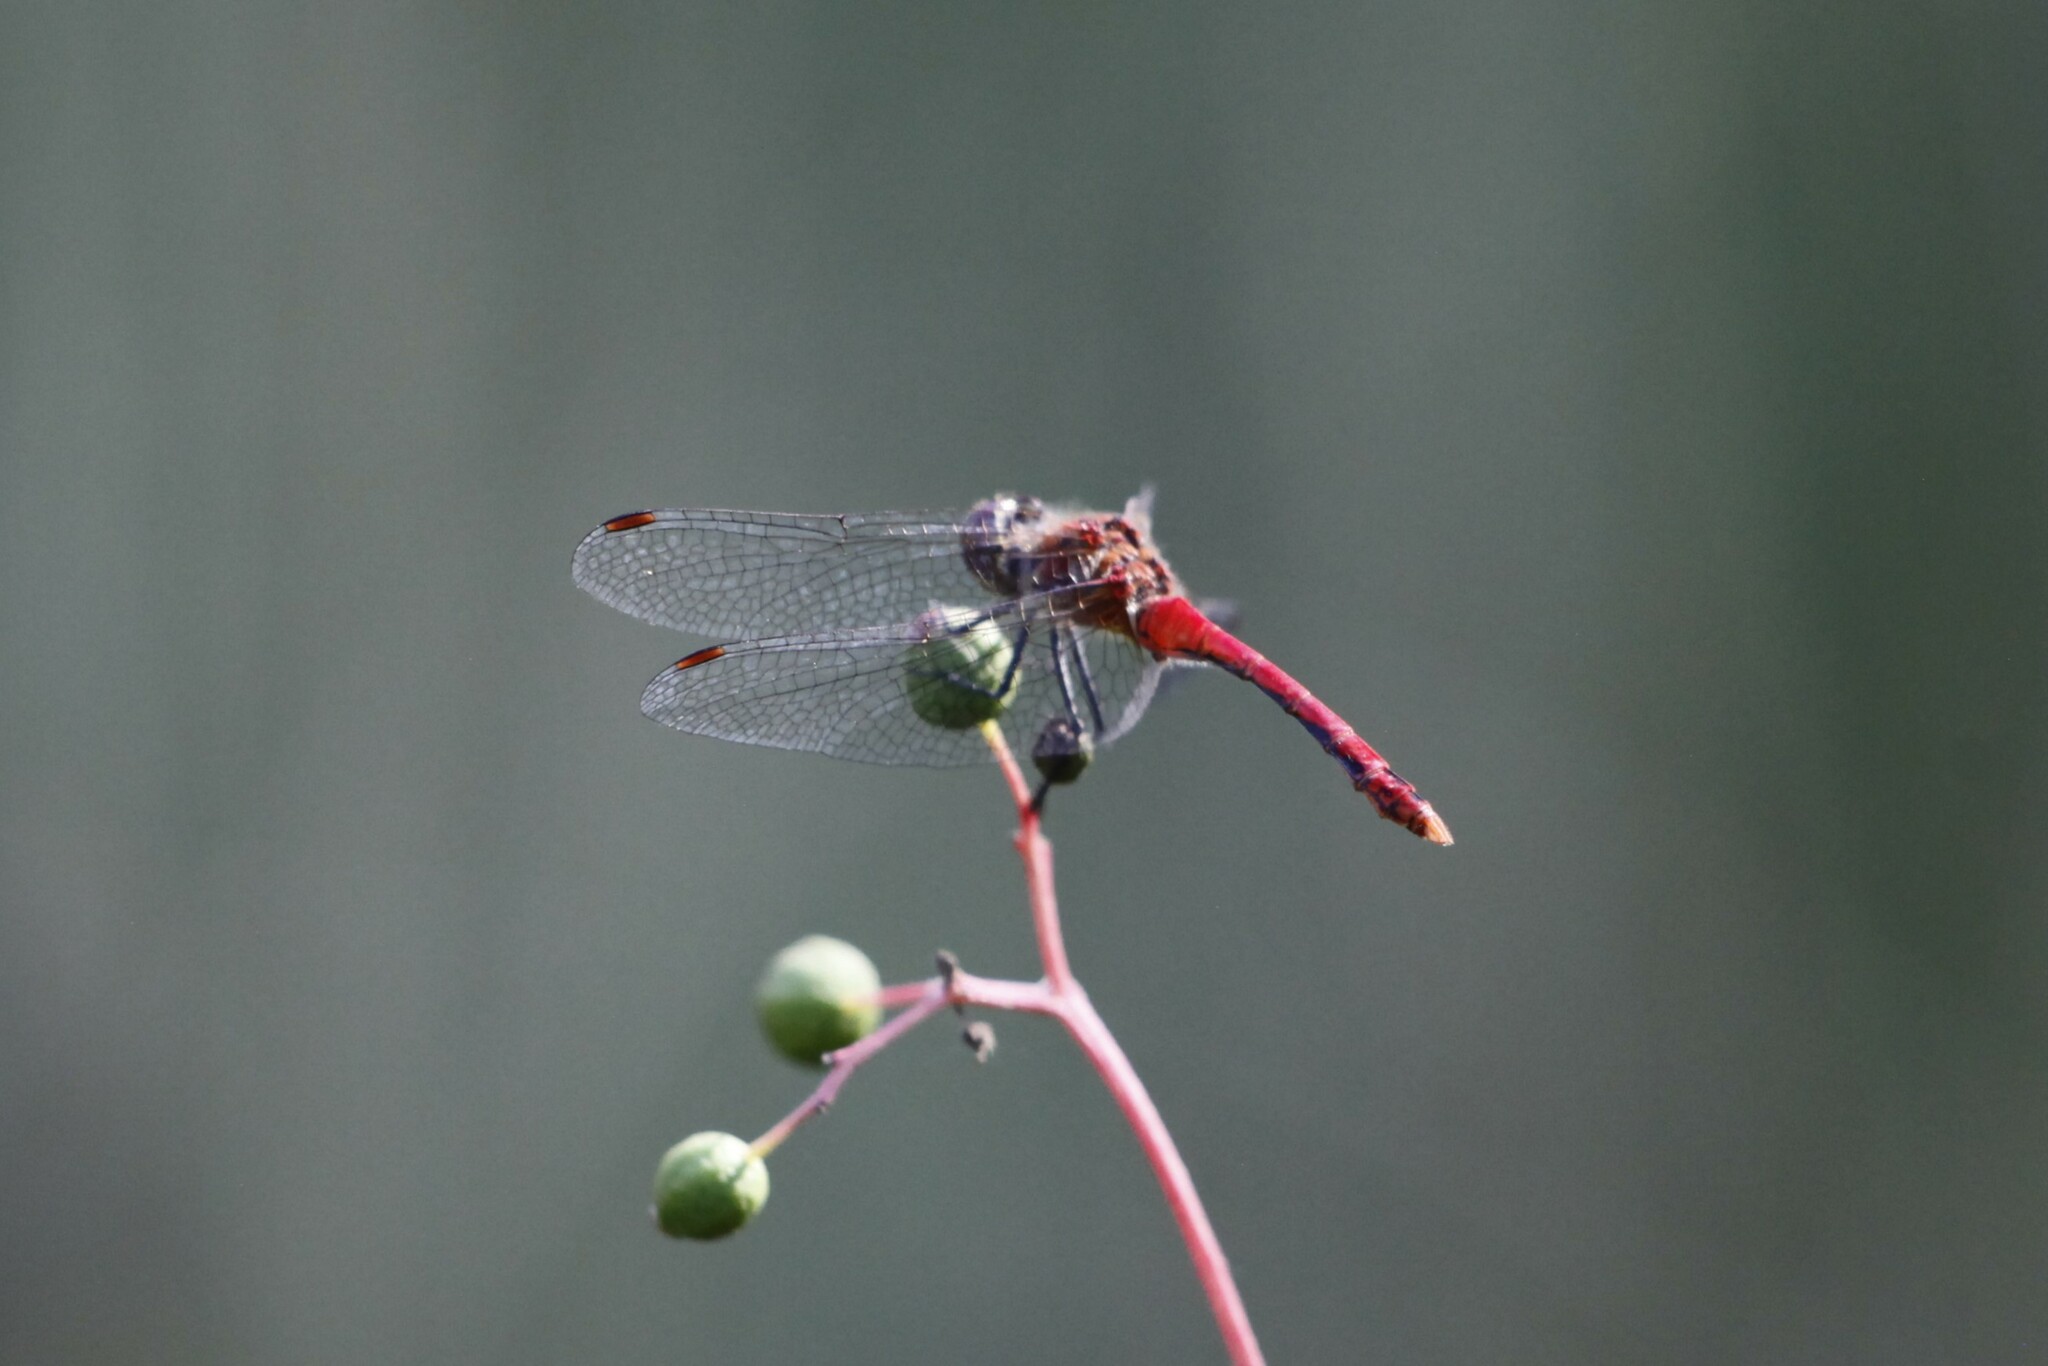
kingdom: Animalia
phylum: Arthropoda
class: Insecta
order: Odonata
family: Libellulidae
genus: Sympetrum
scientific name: Sympetrum sanguineum
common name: Ruddy darter
